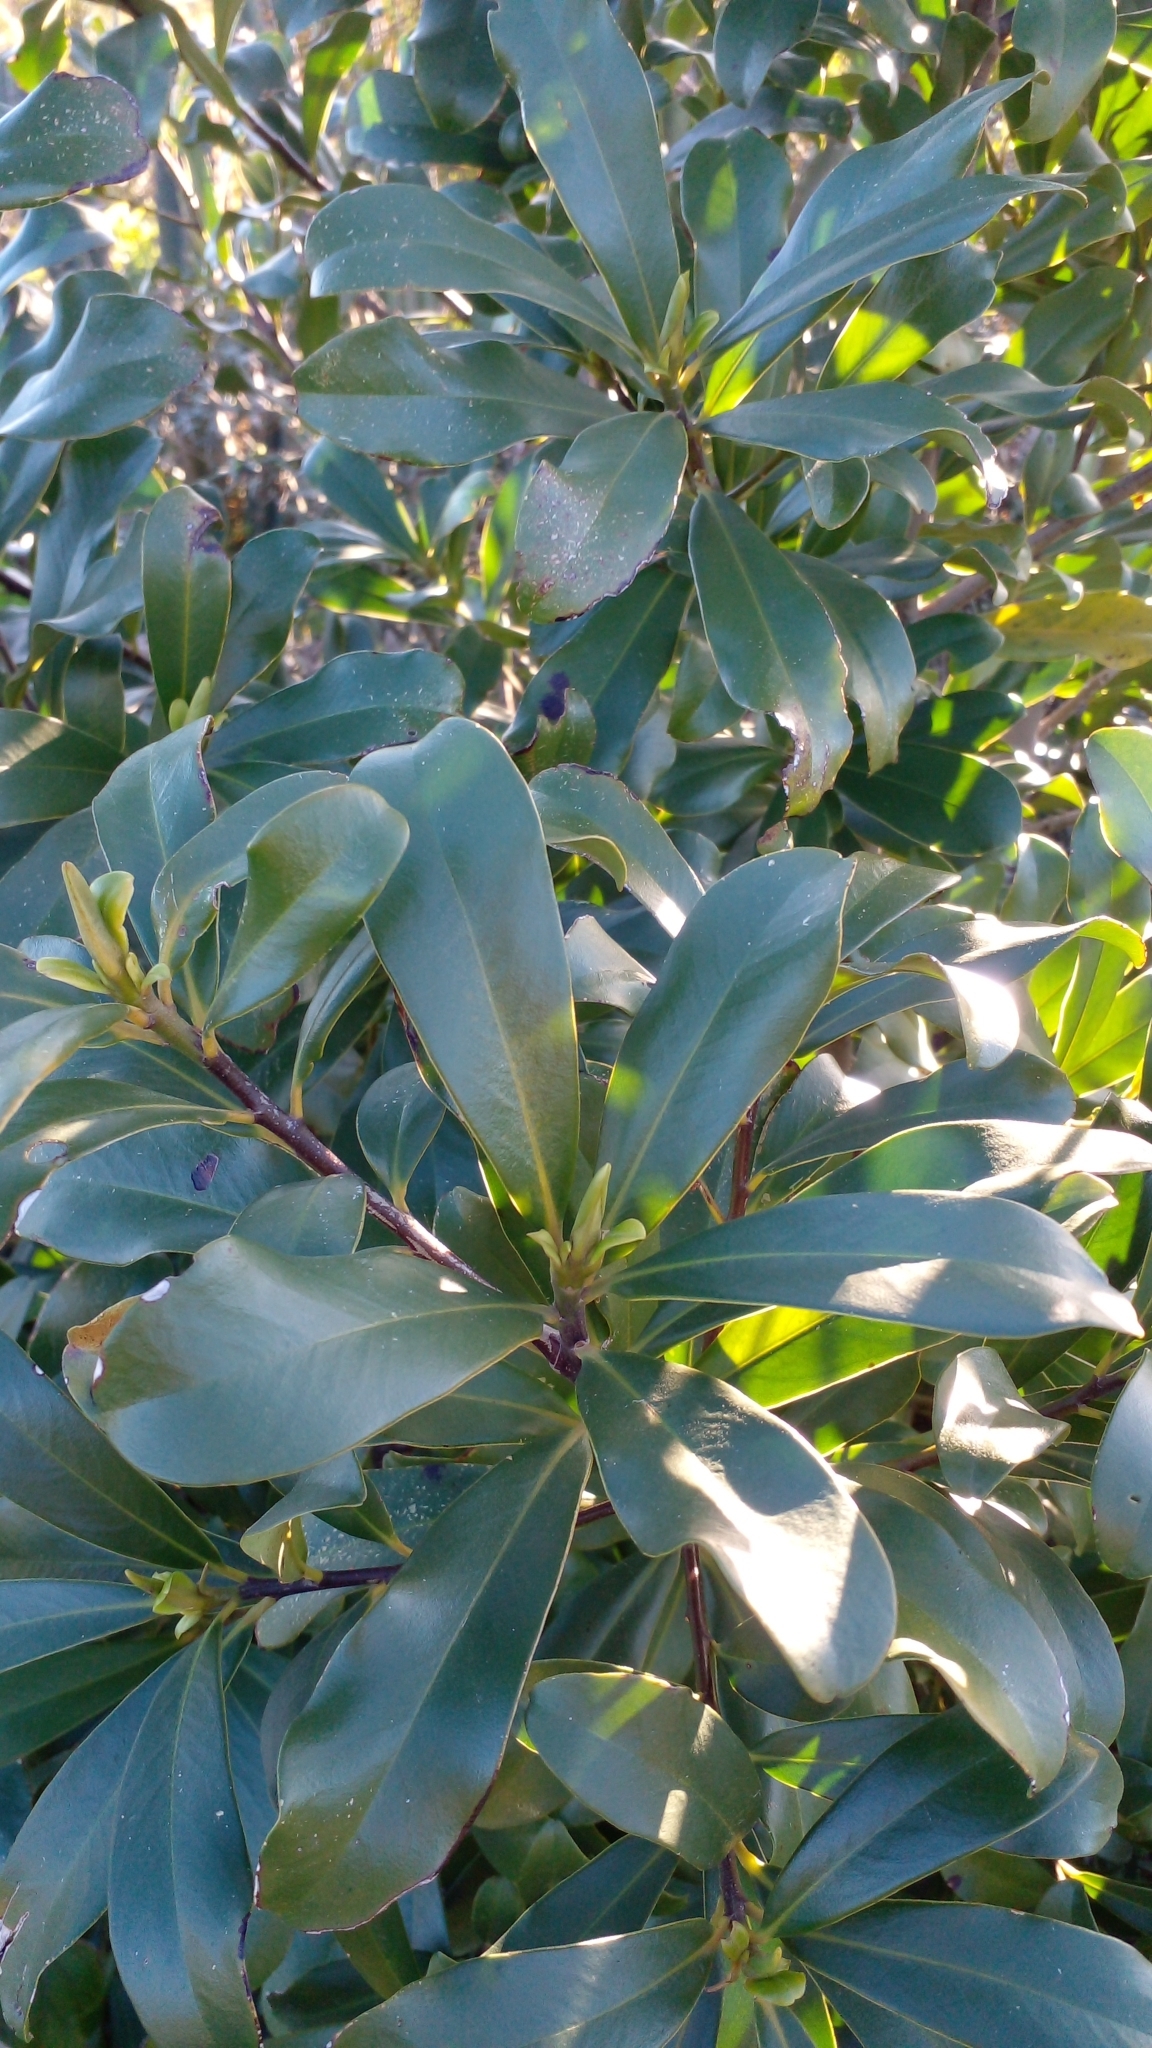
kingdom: Plantae
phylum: Tracheophyta
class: Magnoliopsida
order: Ericales
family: Primulaceae
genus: Myrsine
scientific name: Myrsine laetevirens
